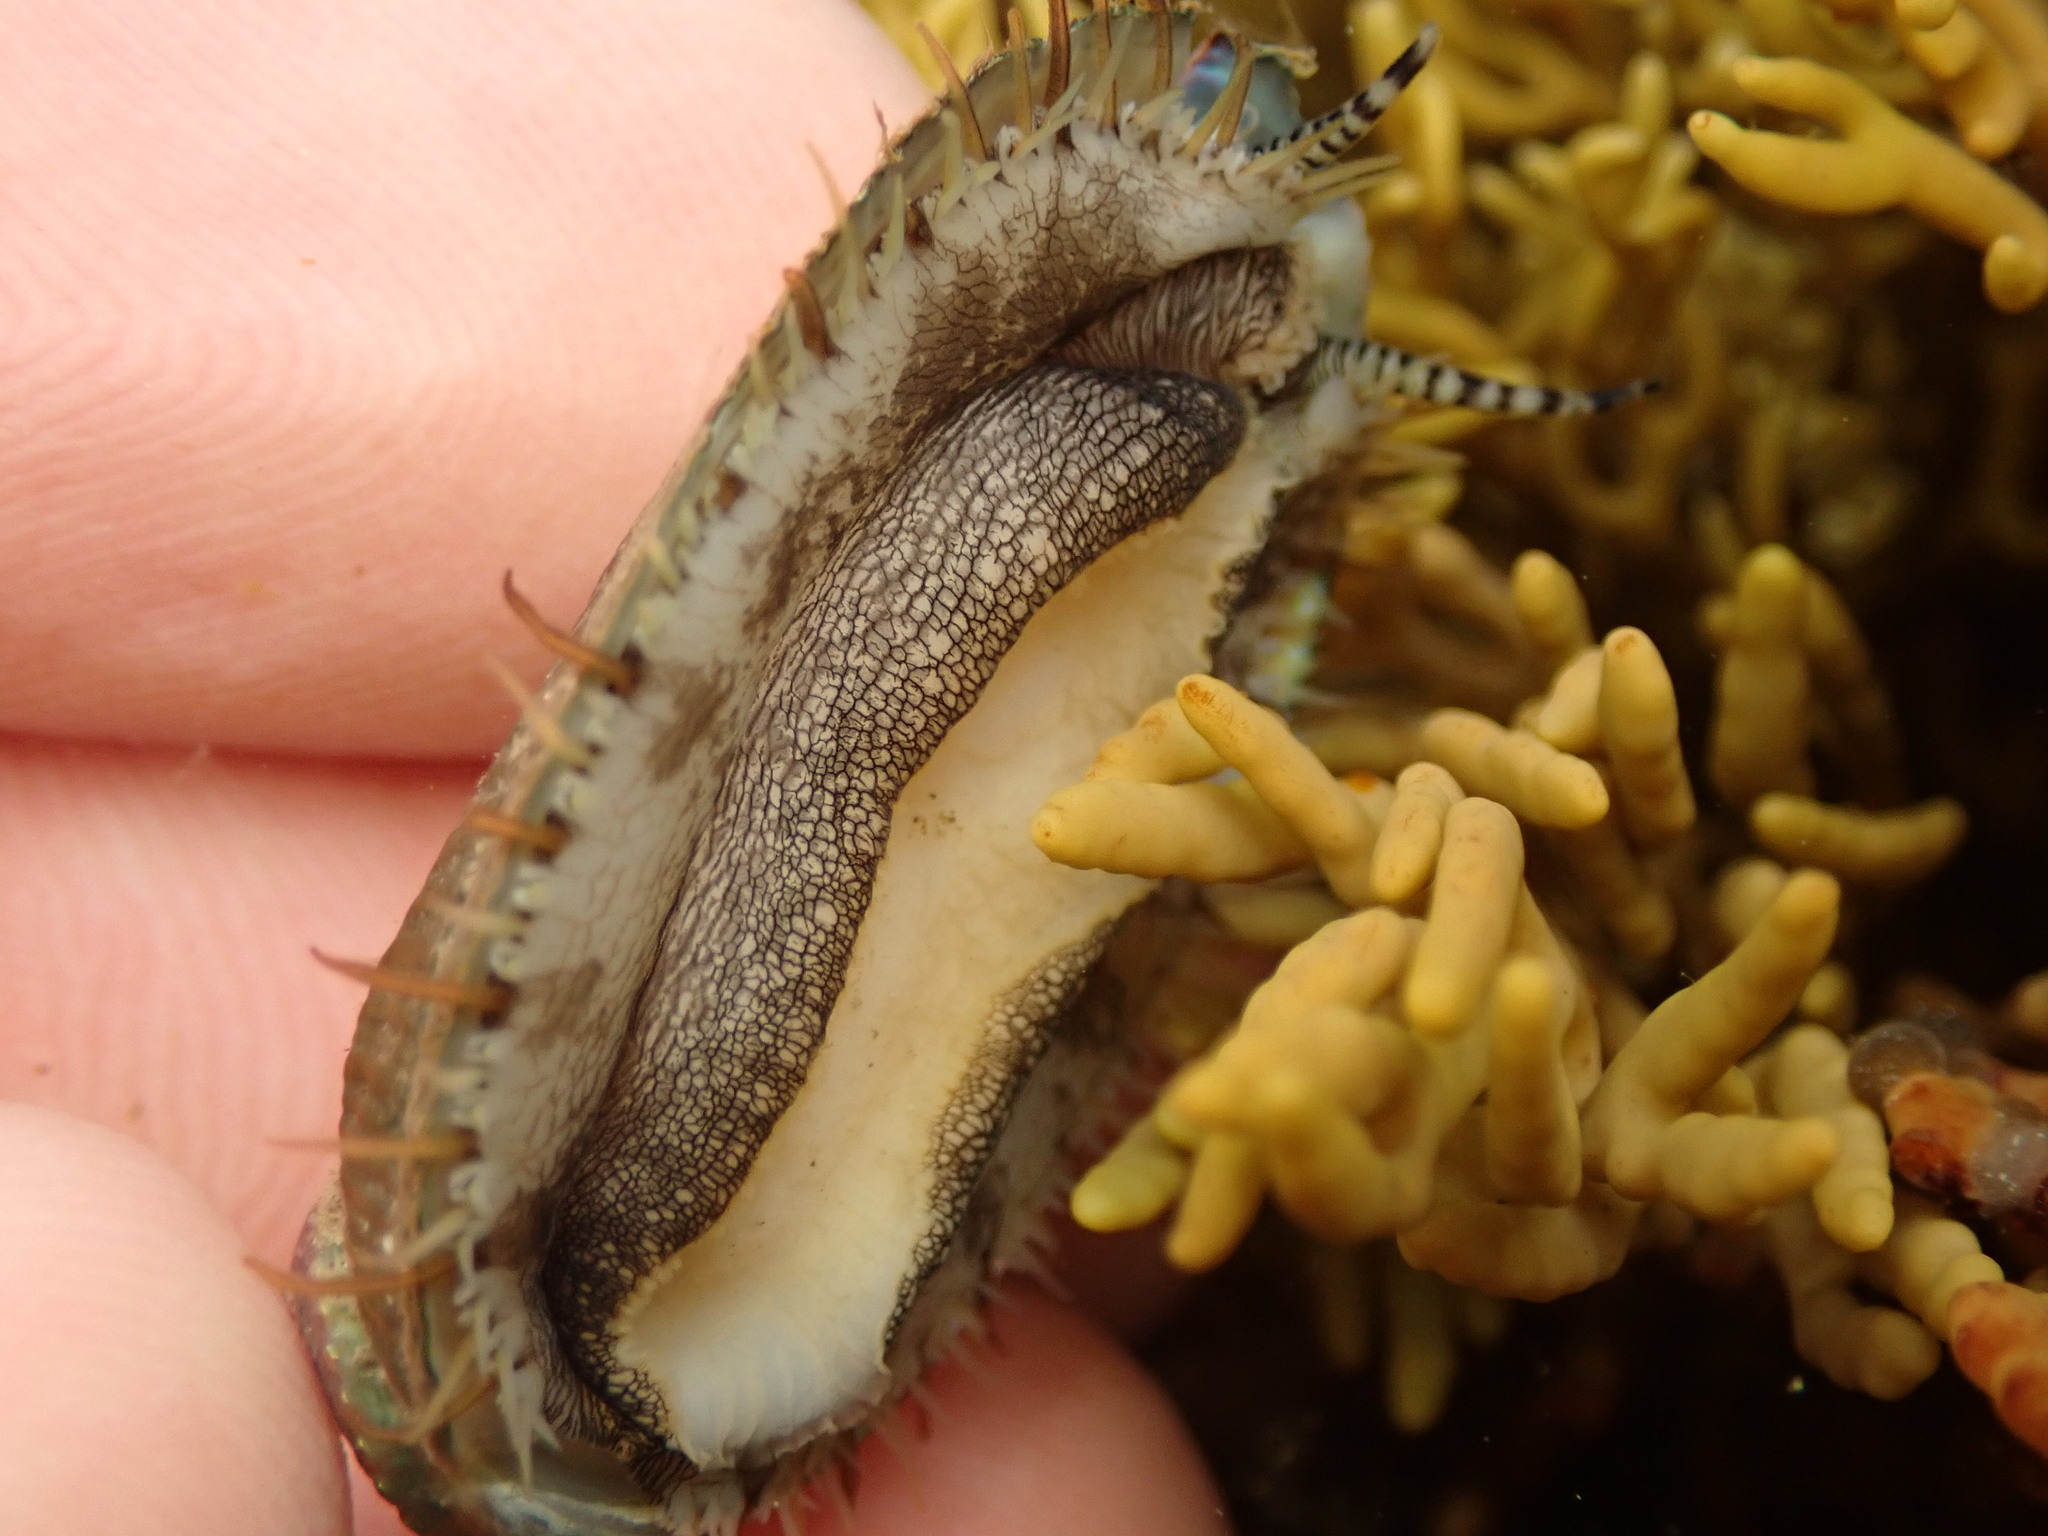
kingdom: Animalia
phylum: Mollusca
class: Gastropoda
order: Lepetellida
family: Haliotidae
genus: Haliotis
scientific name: Haliotis virginea
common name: Whitefoot paua
